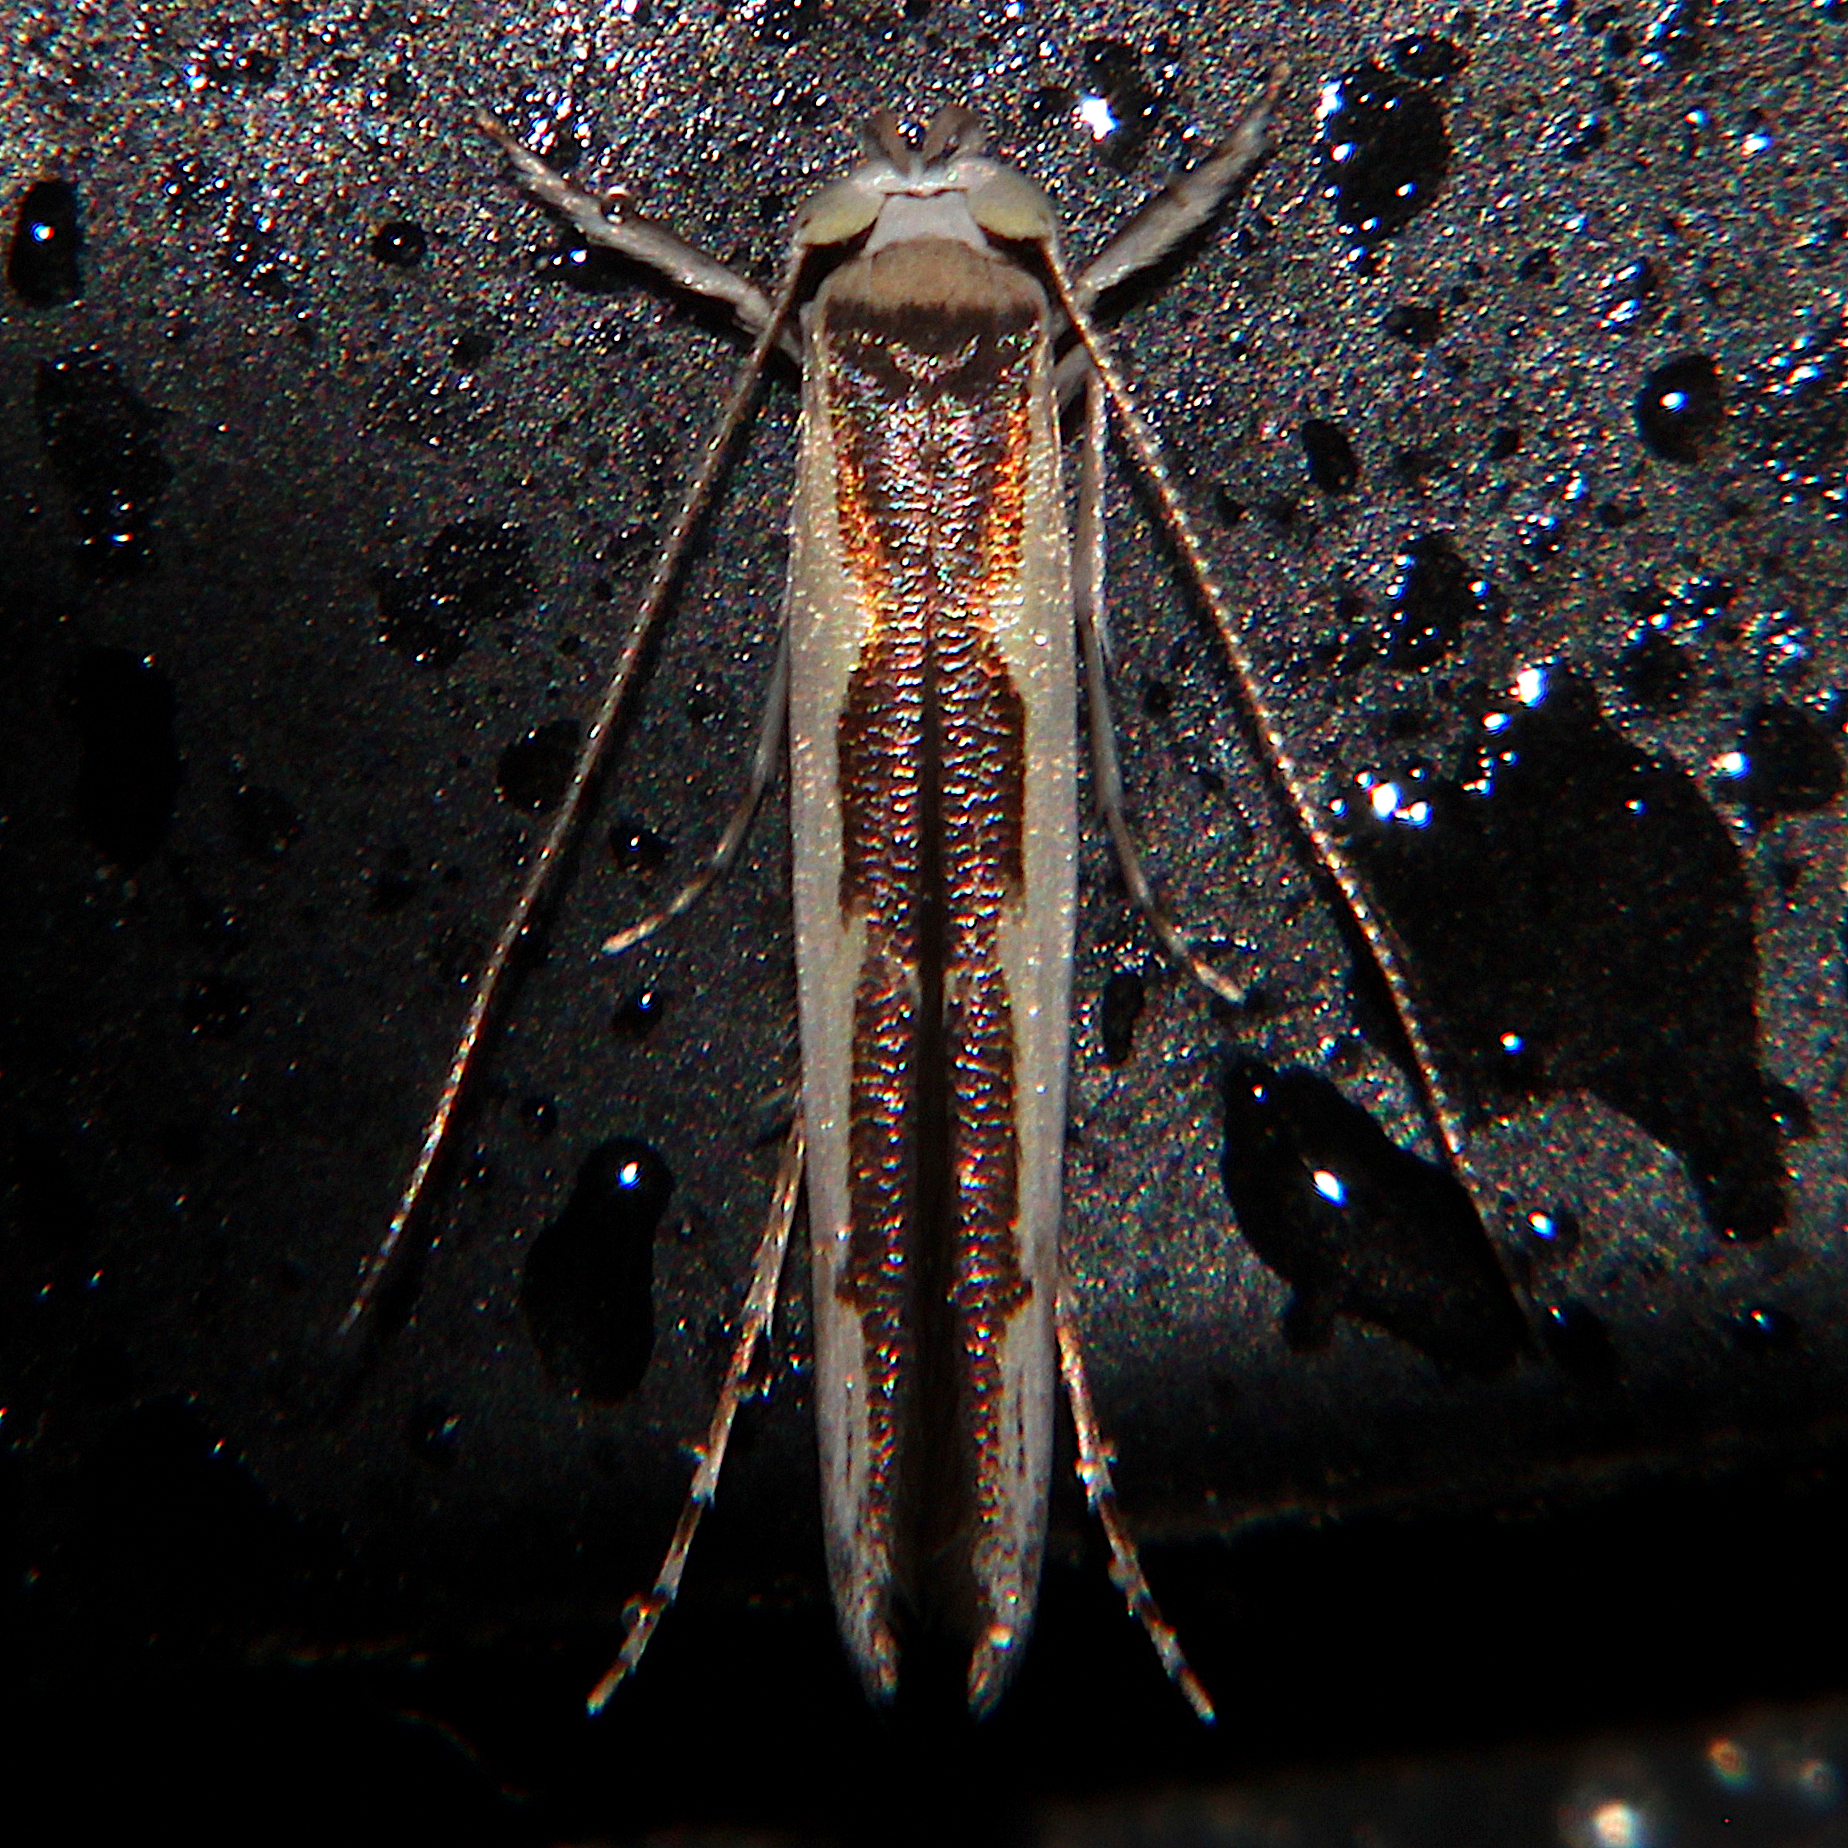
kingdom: Animalia
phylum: Arthropoda
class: Insecta
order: Lepidoptera
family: Roeslerstammiidae
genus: Vanicela
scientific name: Vanicela disjunctella
